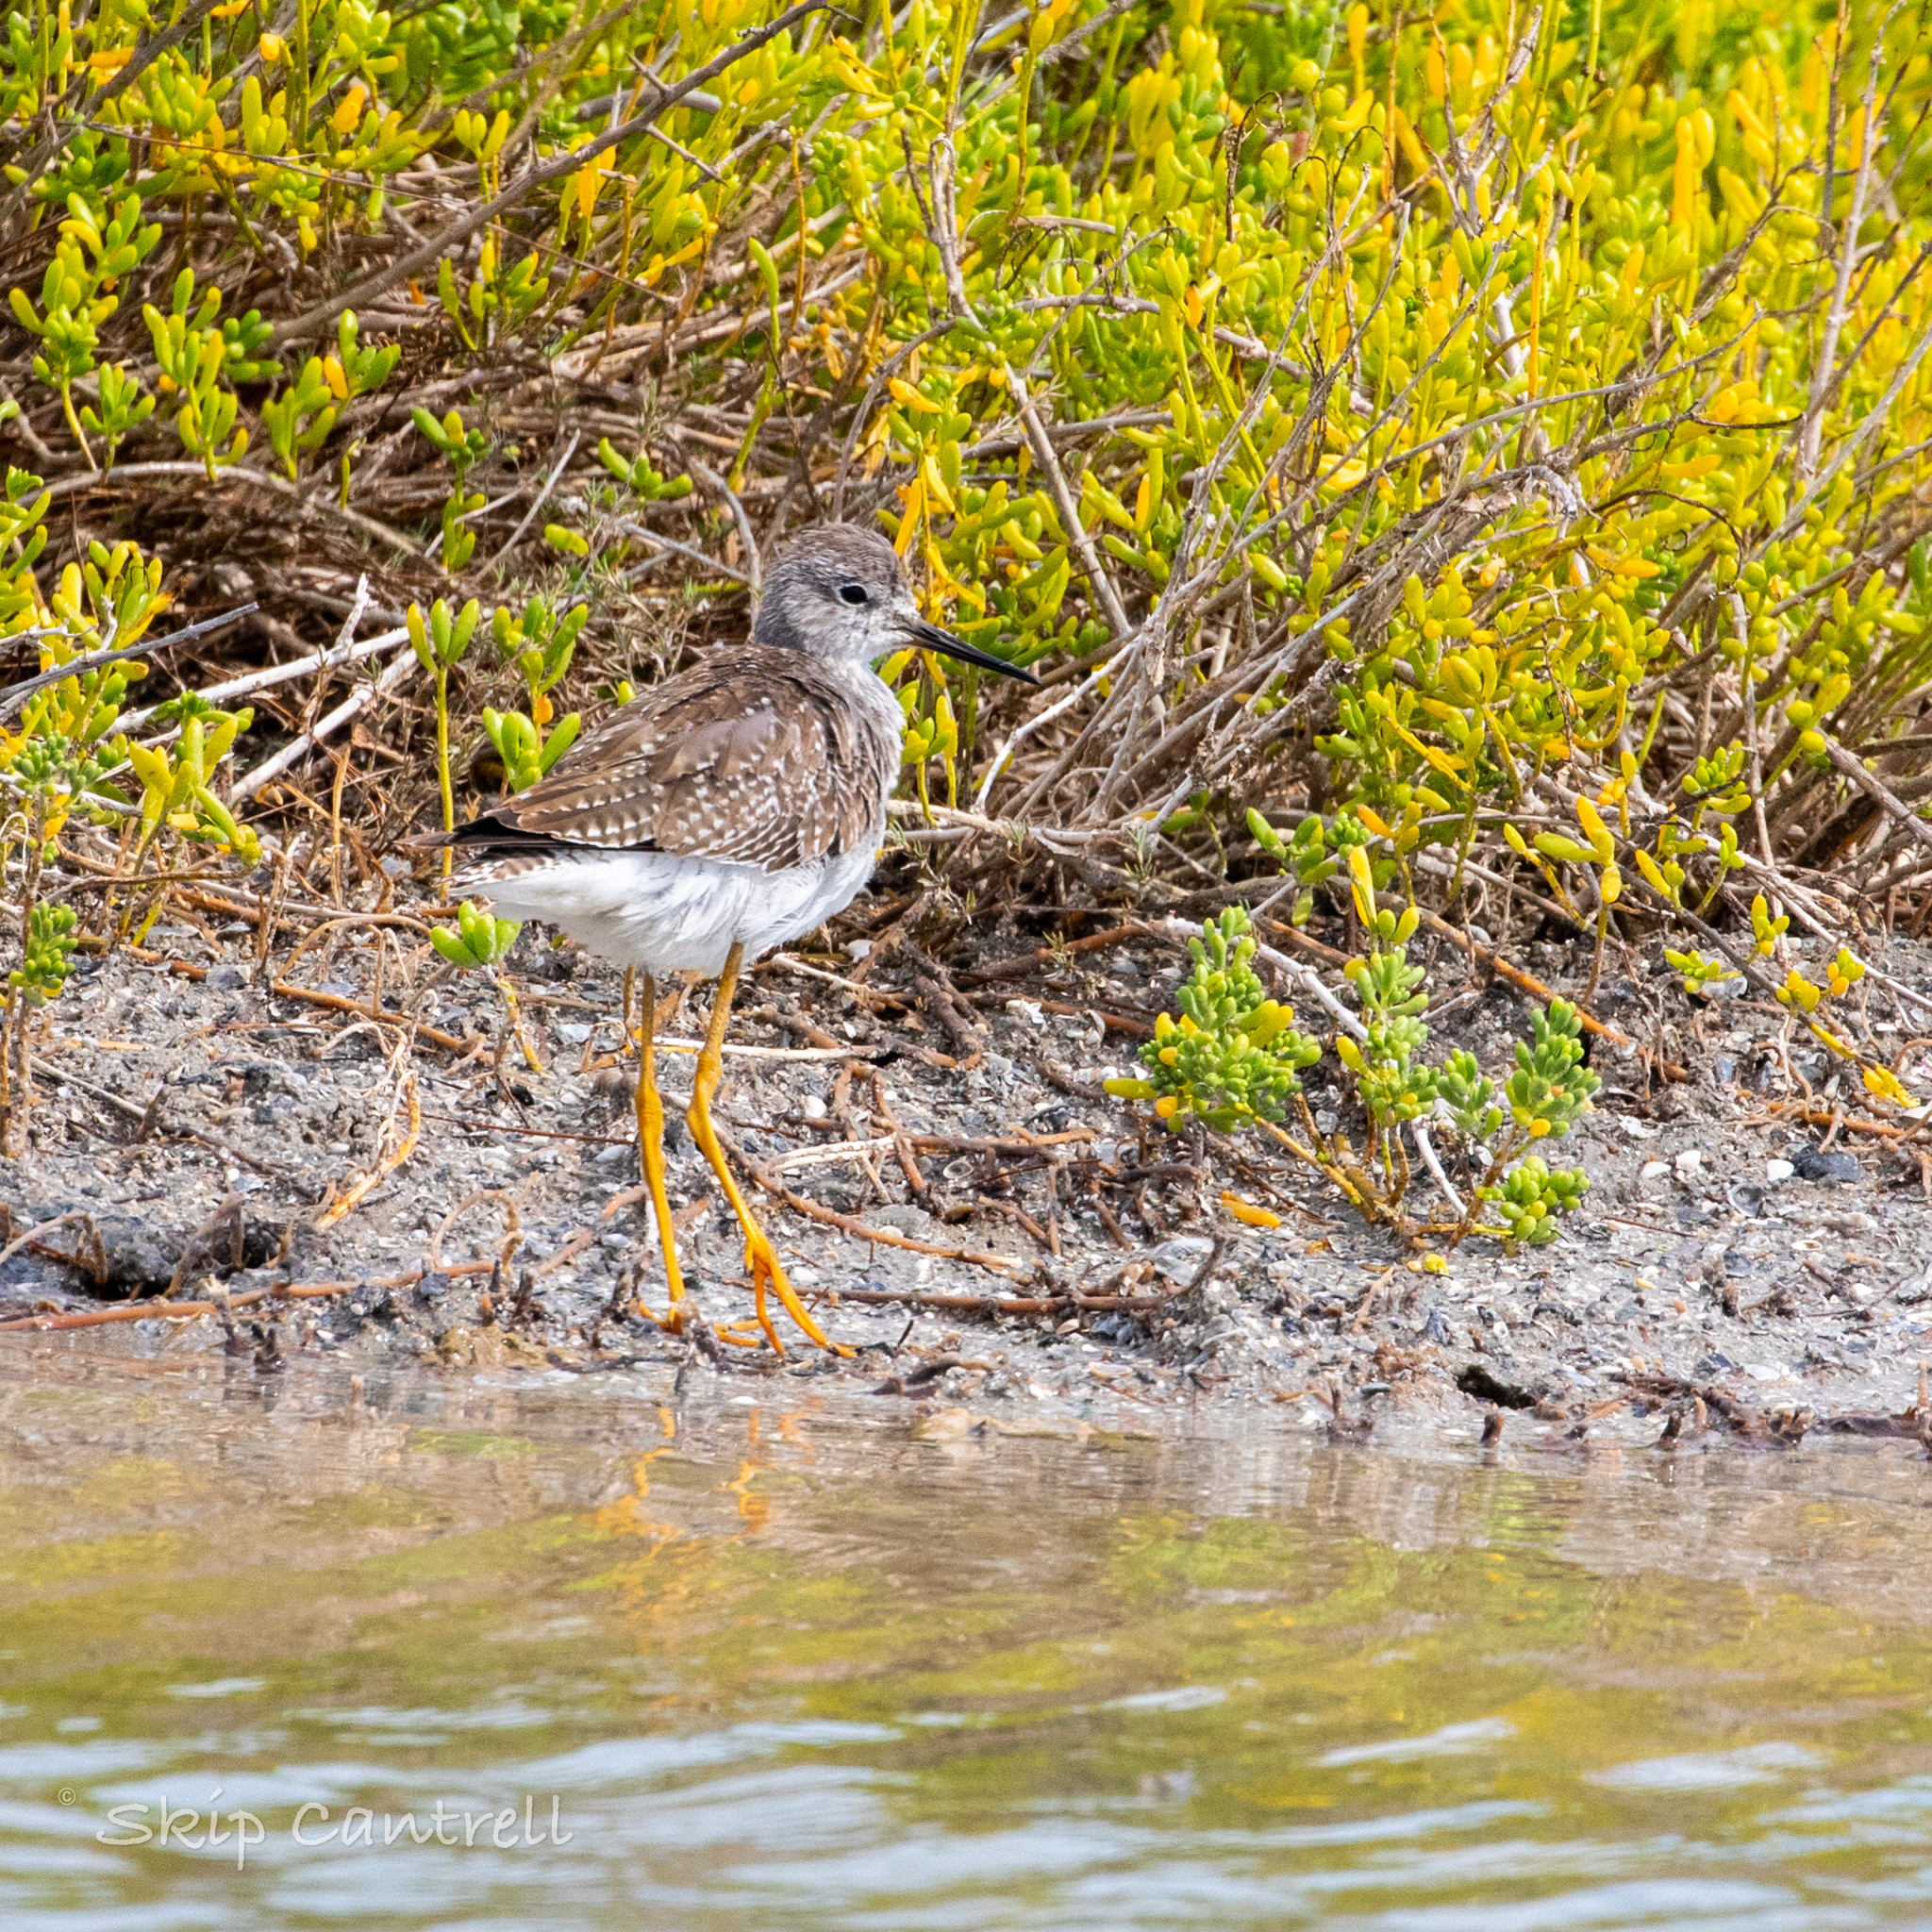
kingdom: Animalia
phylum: Chordata
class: Aves
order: Charadriiformes
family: Scolopacidae
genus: Tringa
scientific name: Tringa flavipes
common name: Lesser yellowlegs
